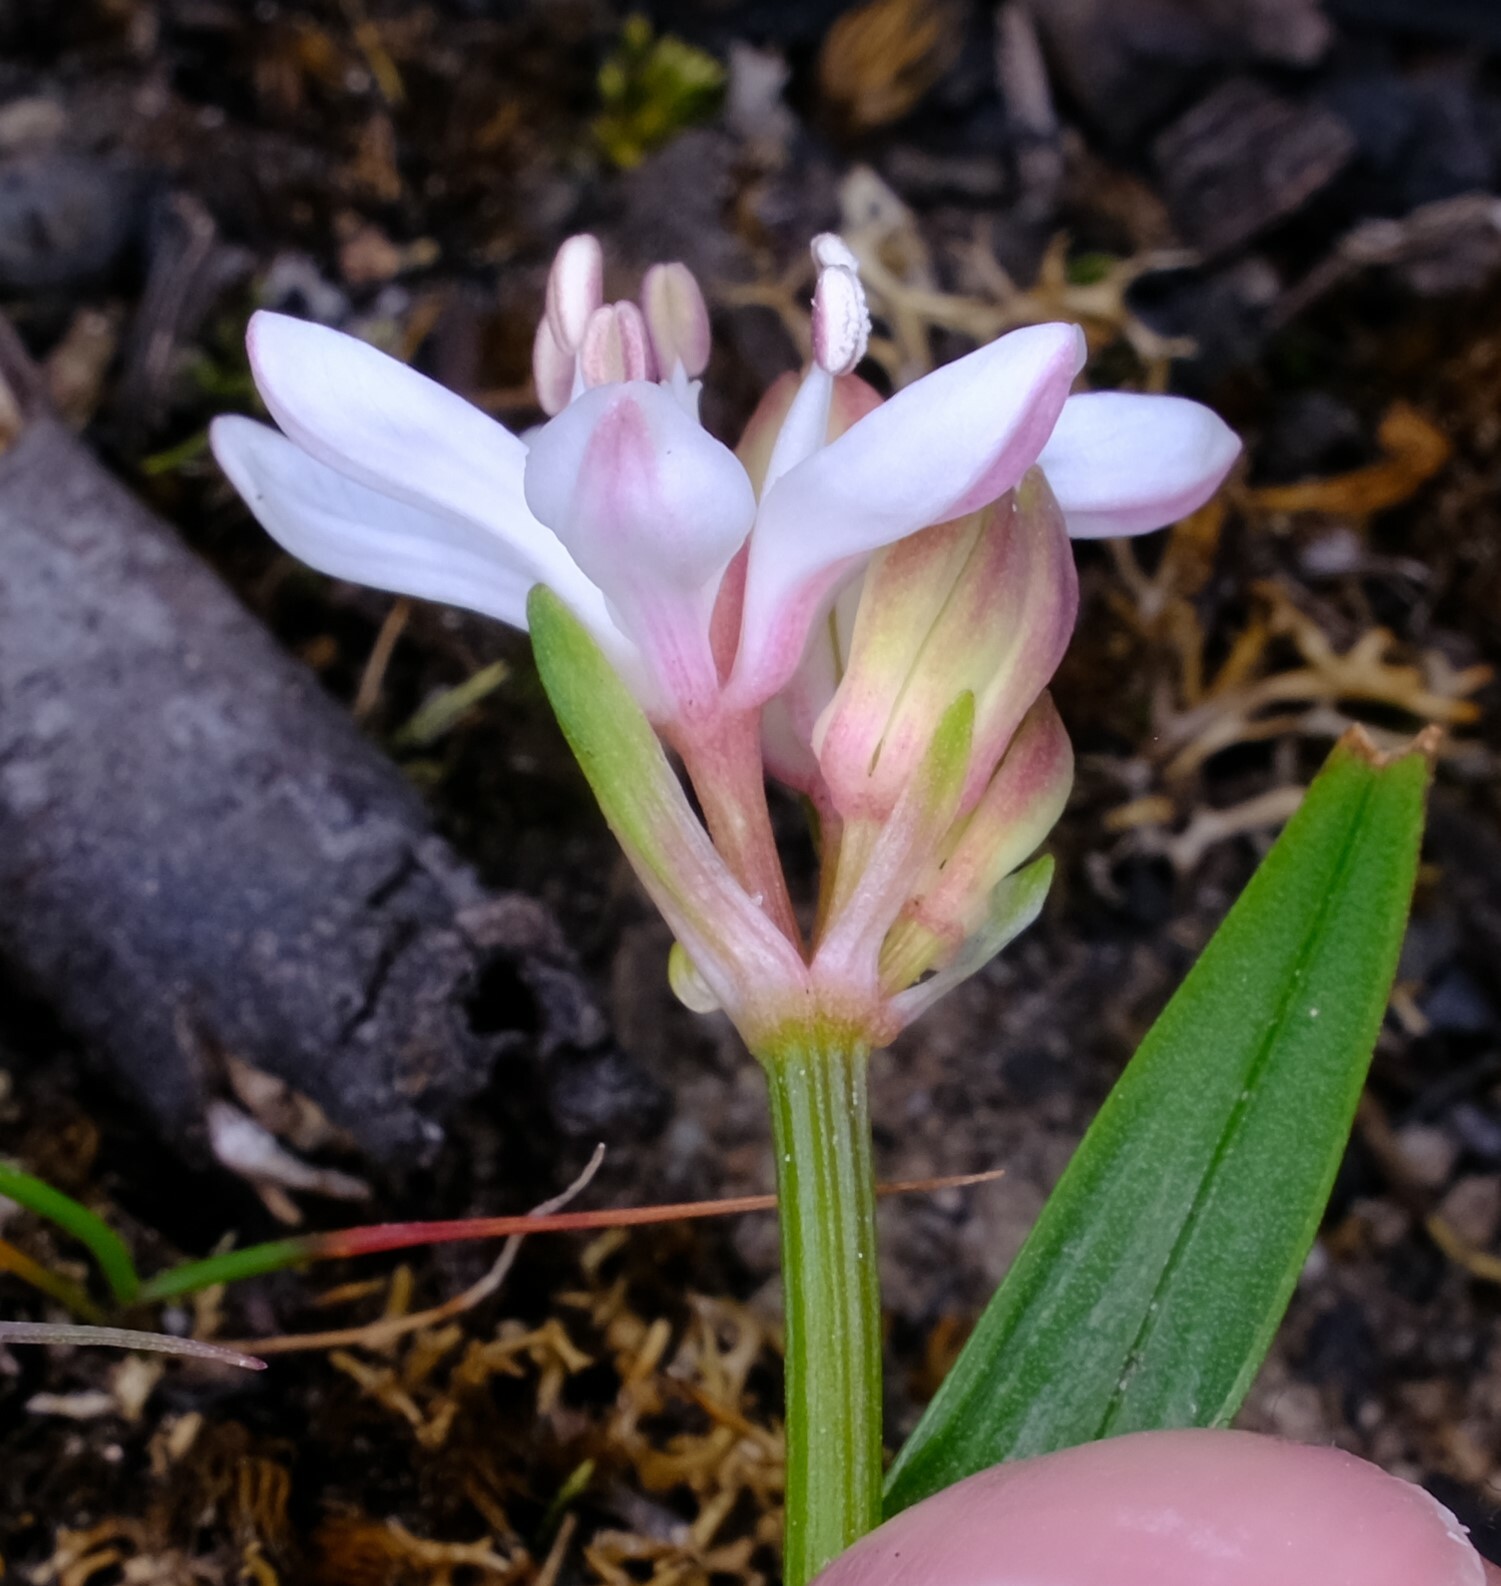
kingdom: Plantae
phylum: Tracheophyta
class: Liliopsida
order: Liliales
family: Colchicaceae
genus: Burchardia
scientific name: Burchardia umbellata
